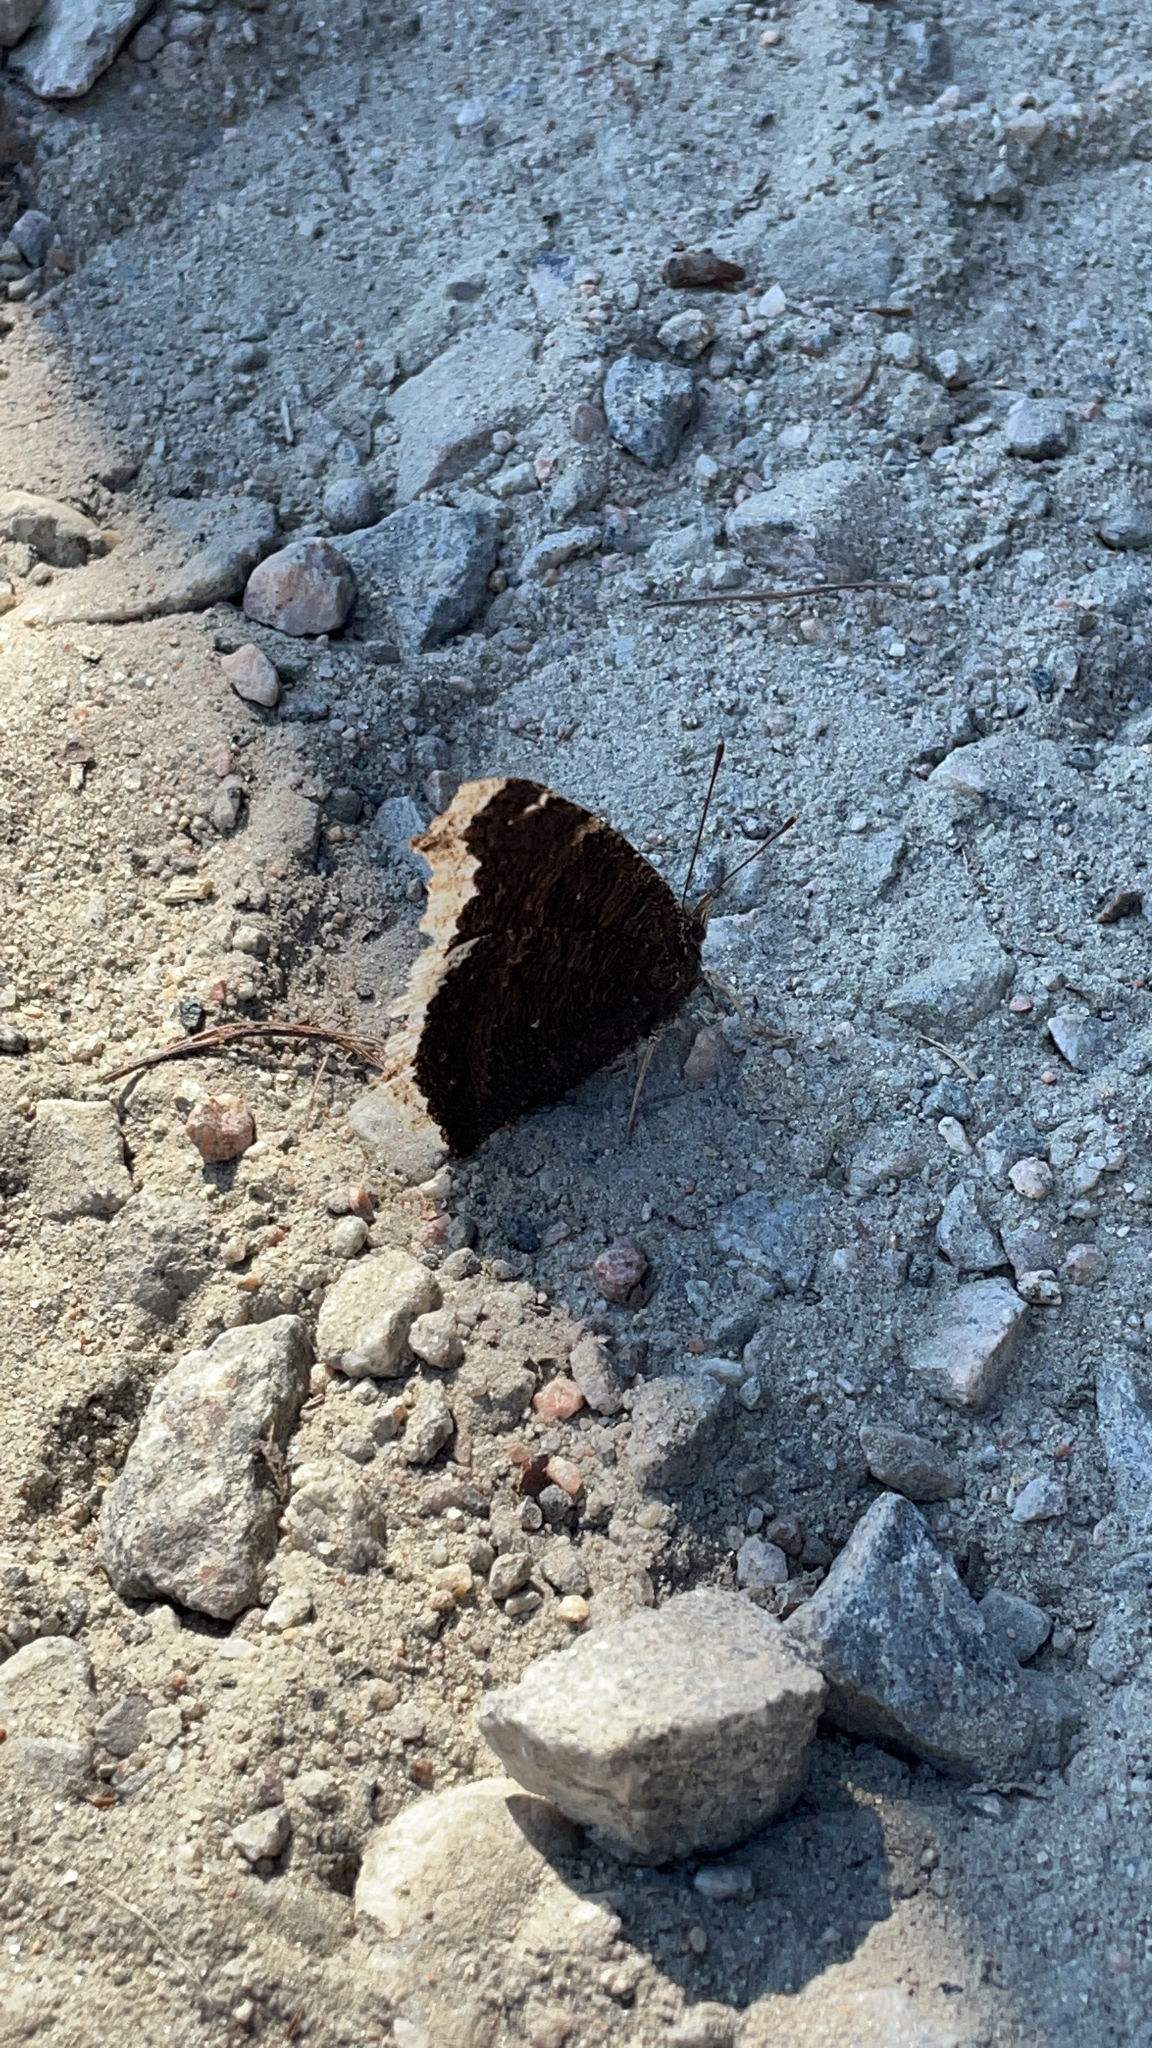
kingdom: Animalia
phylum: Arthropoda
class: Insecta
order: Lepidoptera
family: Nymphalidae
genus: Nymphalis
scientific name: Nymphalis antiopa
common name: Camberwell beauty
